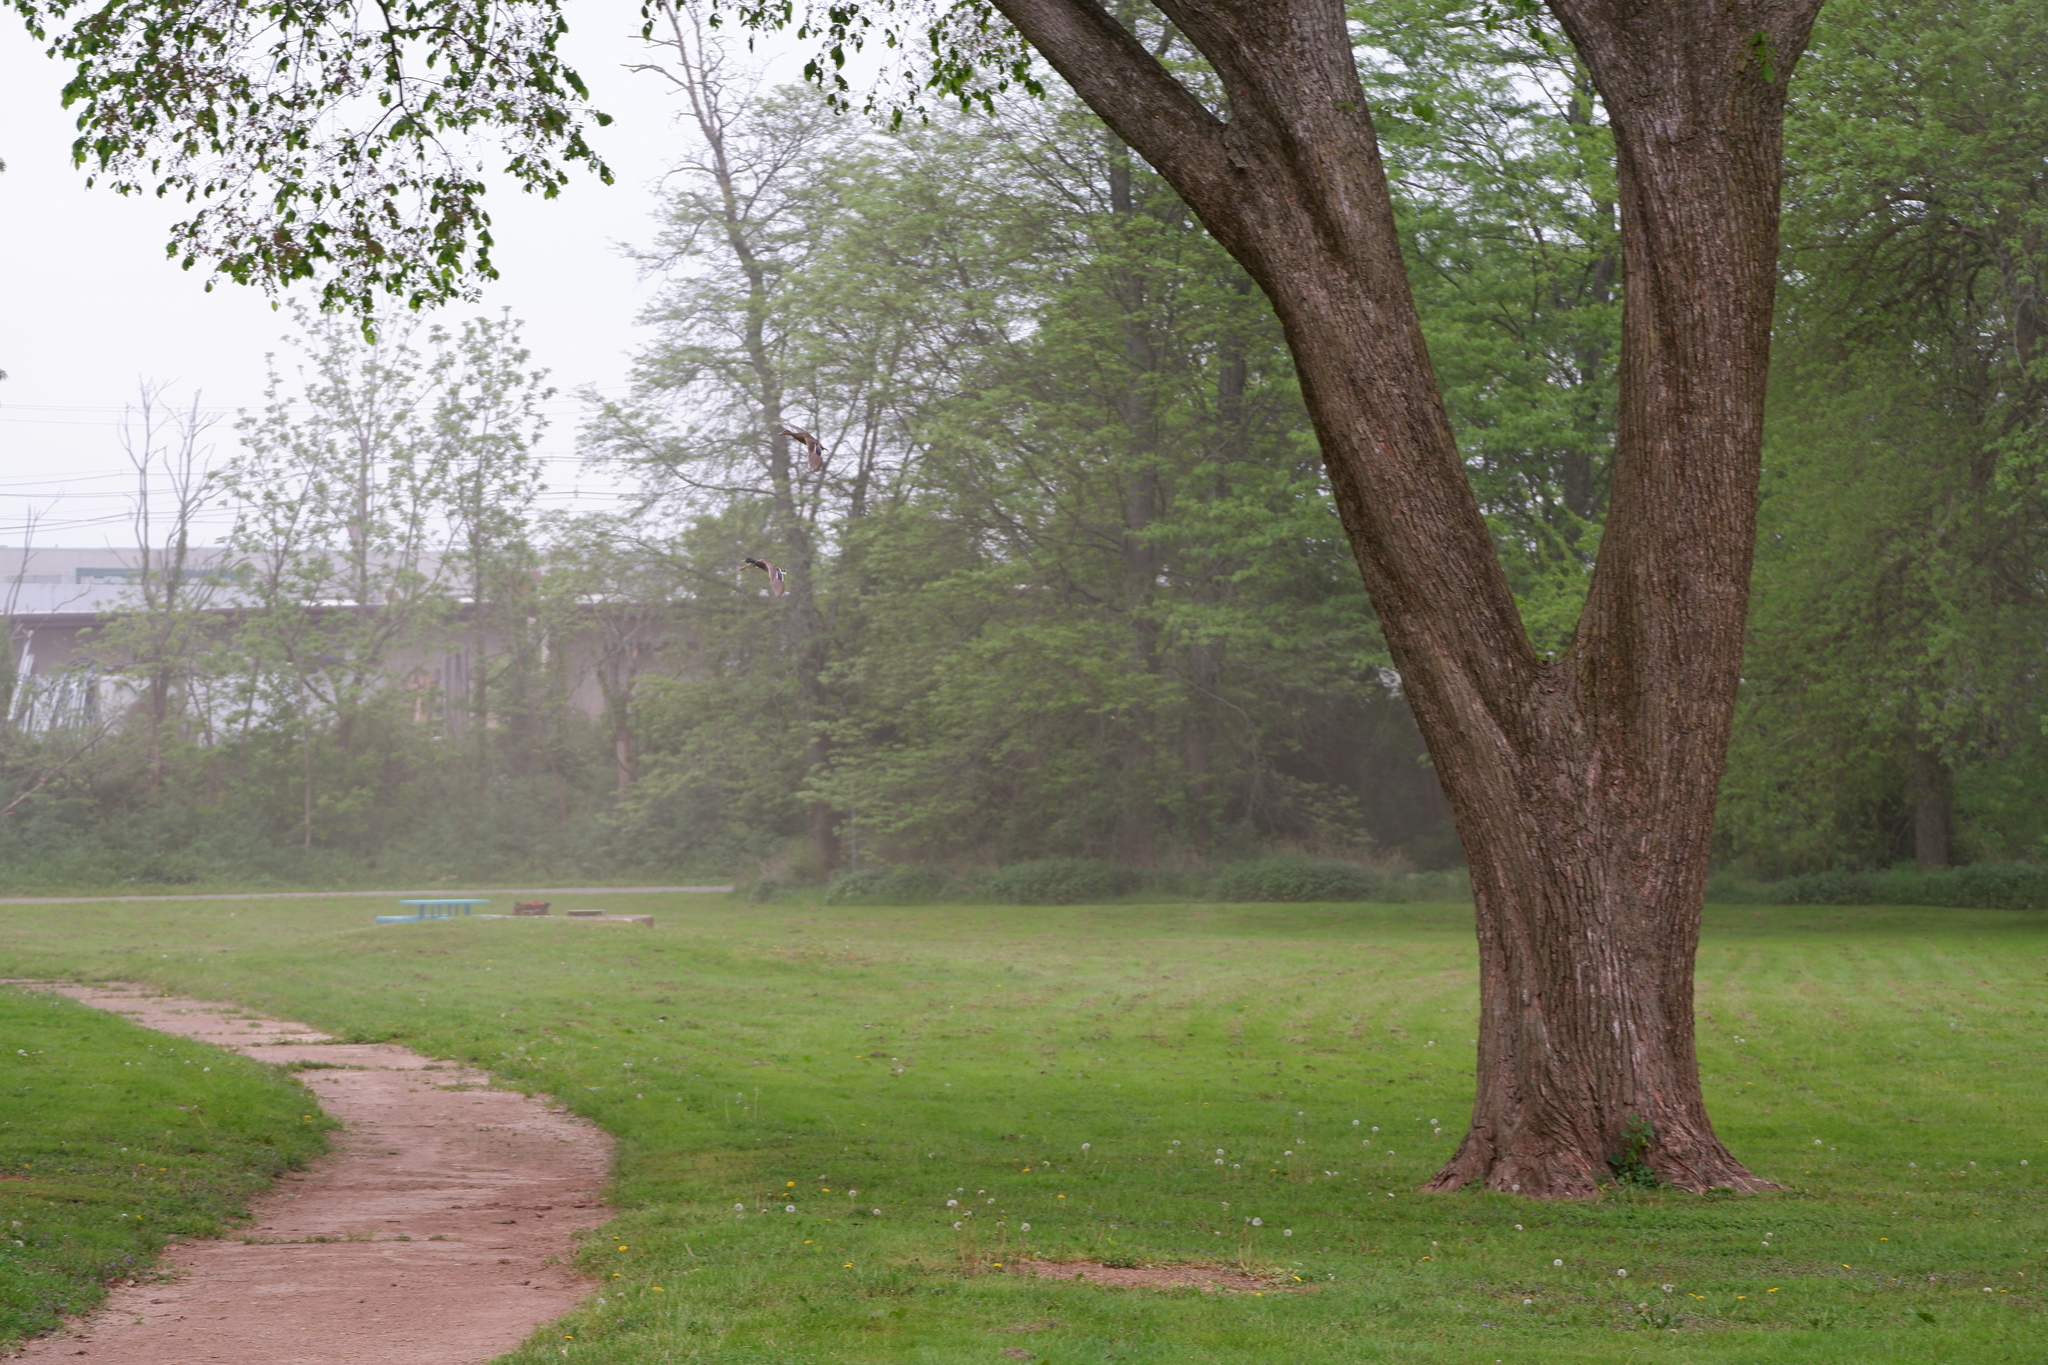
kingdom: Animalia
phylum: Chordata
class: Aves
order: Anseriformes
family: Anatidae
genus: Anas
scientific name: Anas platyrhynchos
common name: Mallard
